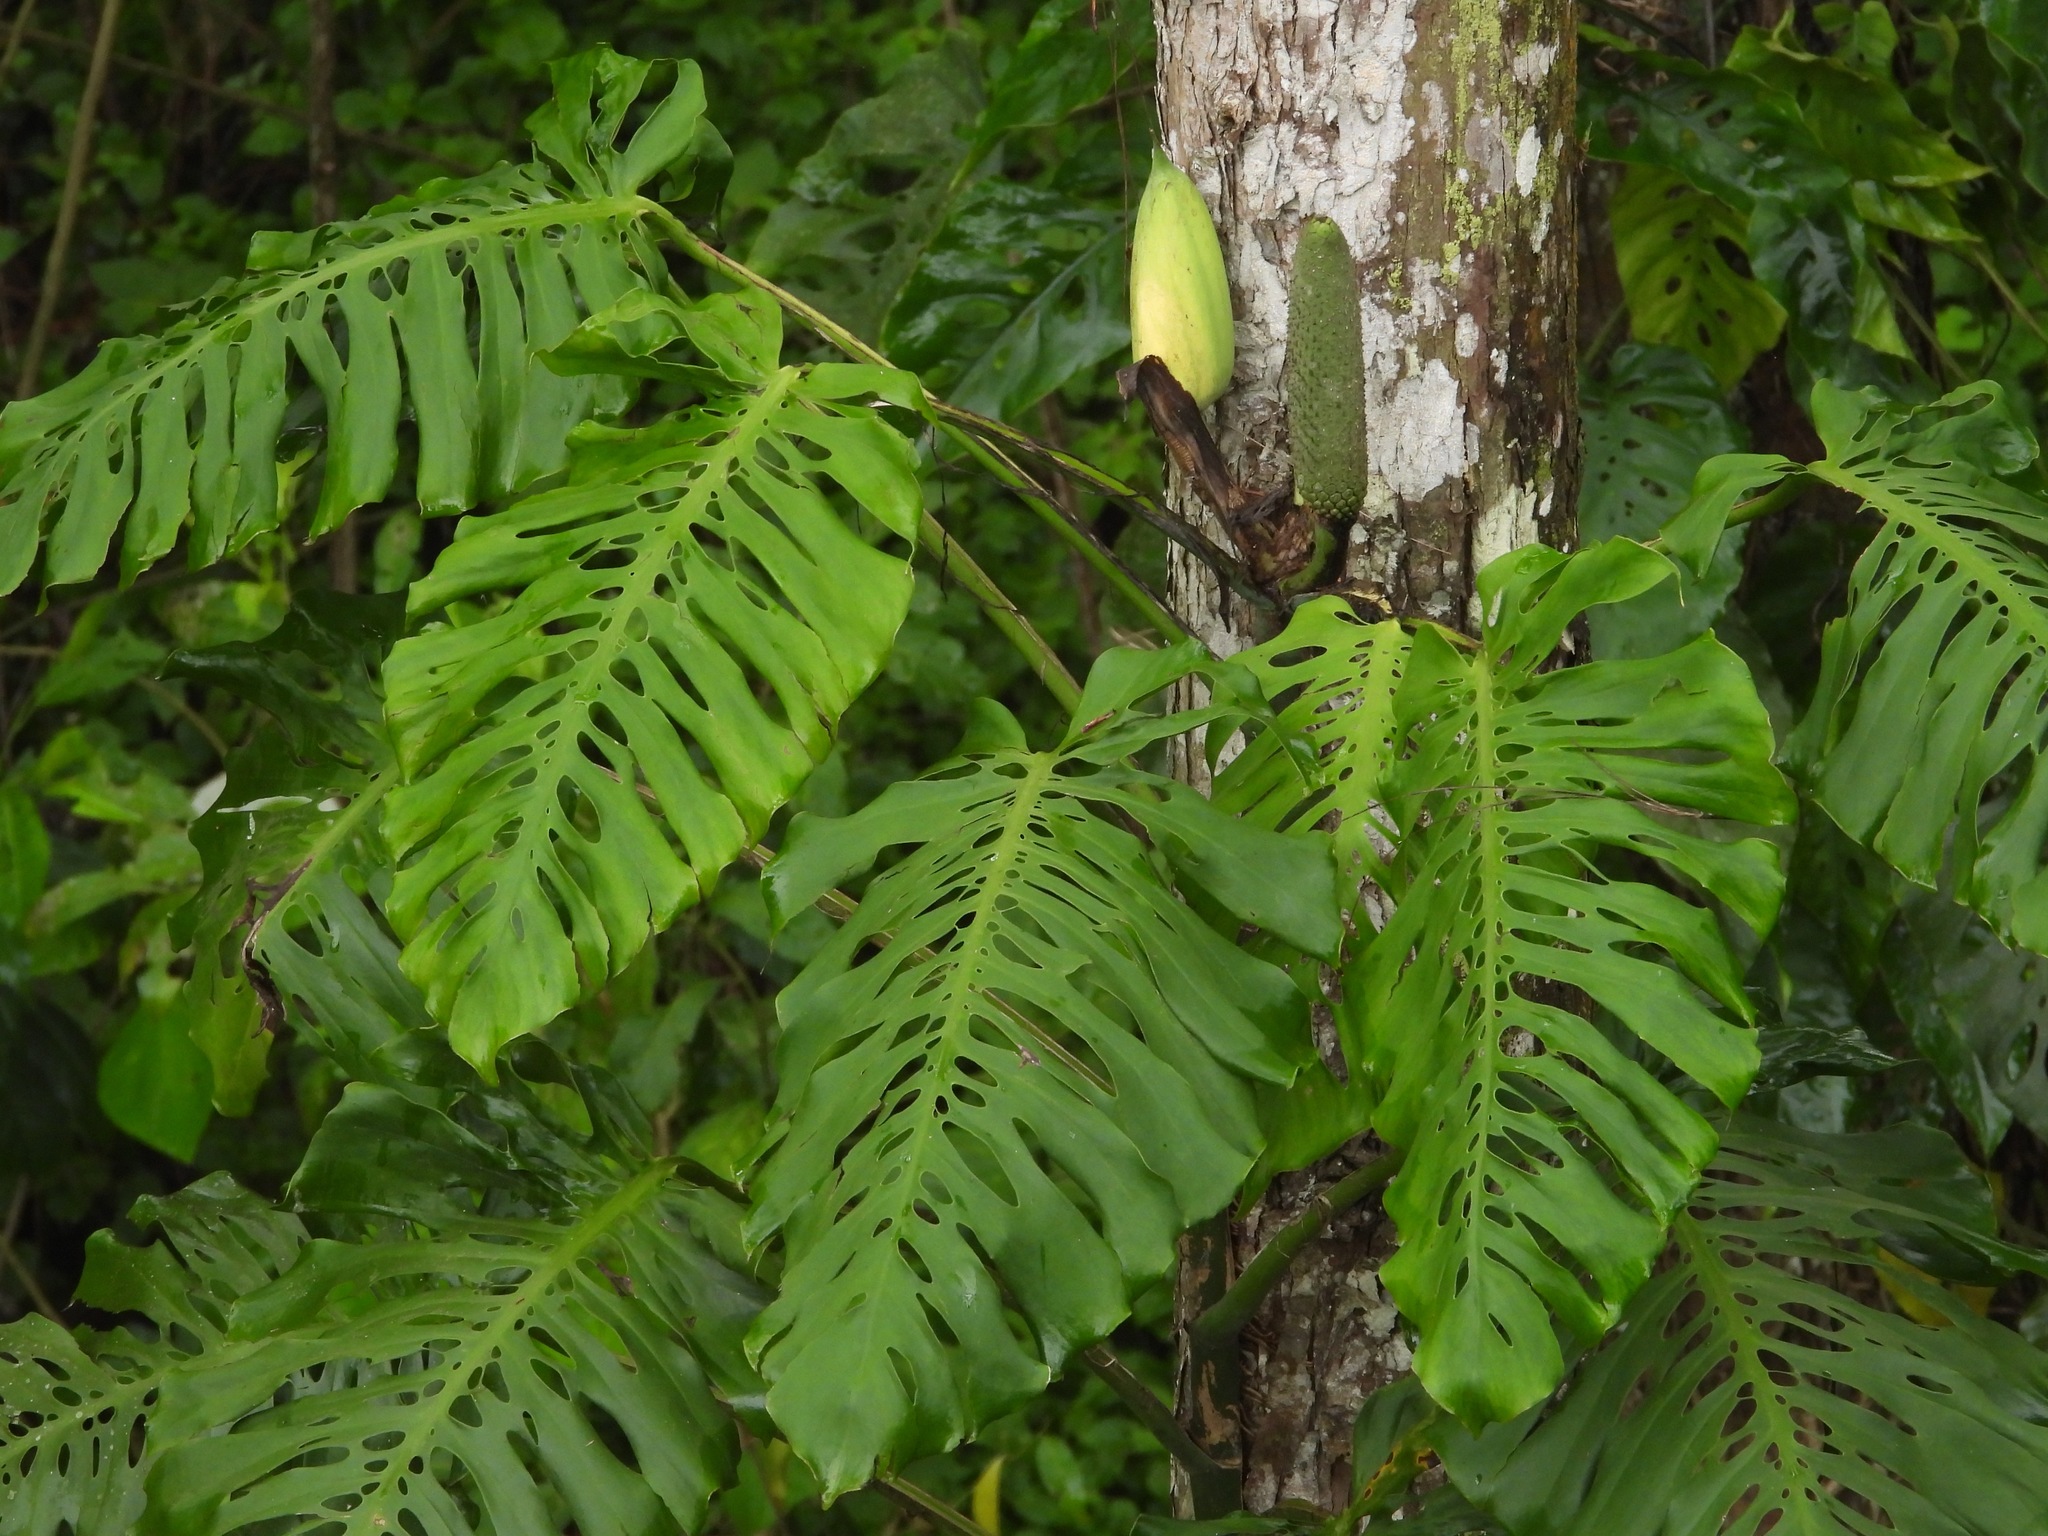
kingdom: Plantae
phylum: Tracheophyta
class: Liliopsida
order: Alismatales
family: Araceae
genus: Monstera
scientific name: Monstera siltepecana
